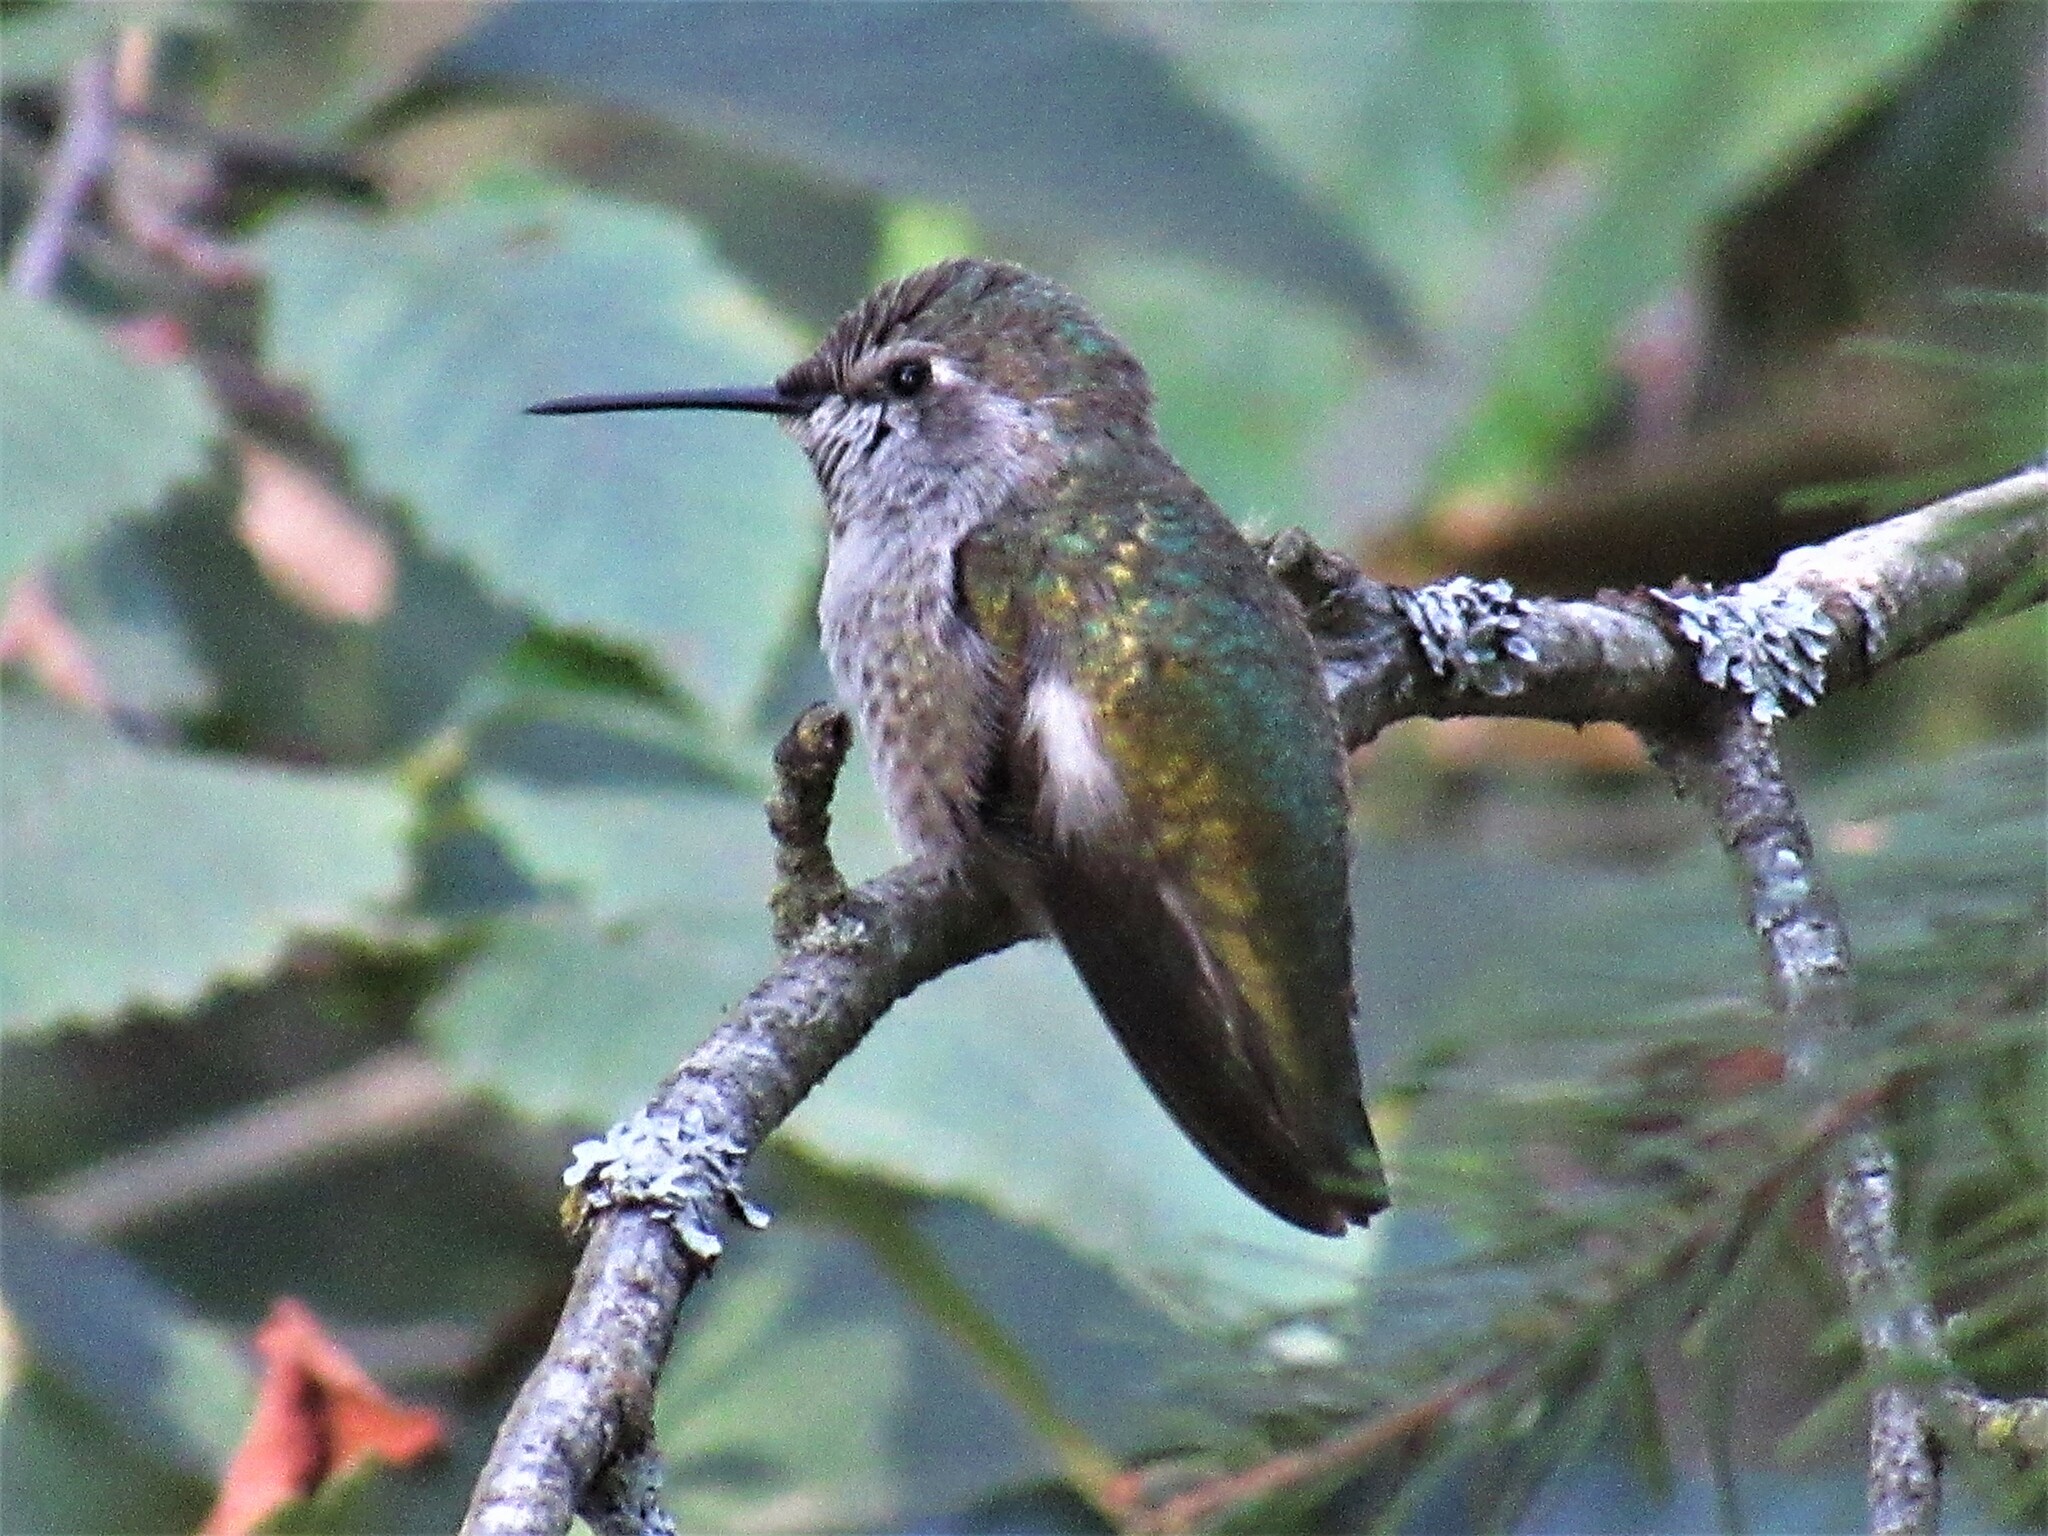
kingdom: Animalia
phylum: Chordata
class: Aves
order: Apodiformes
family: Trochilidae
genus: Calypte
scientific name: Calypte anna
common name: Anna's hummingbird
